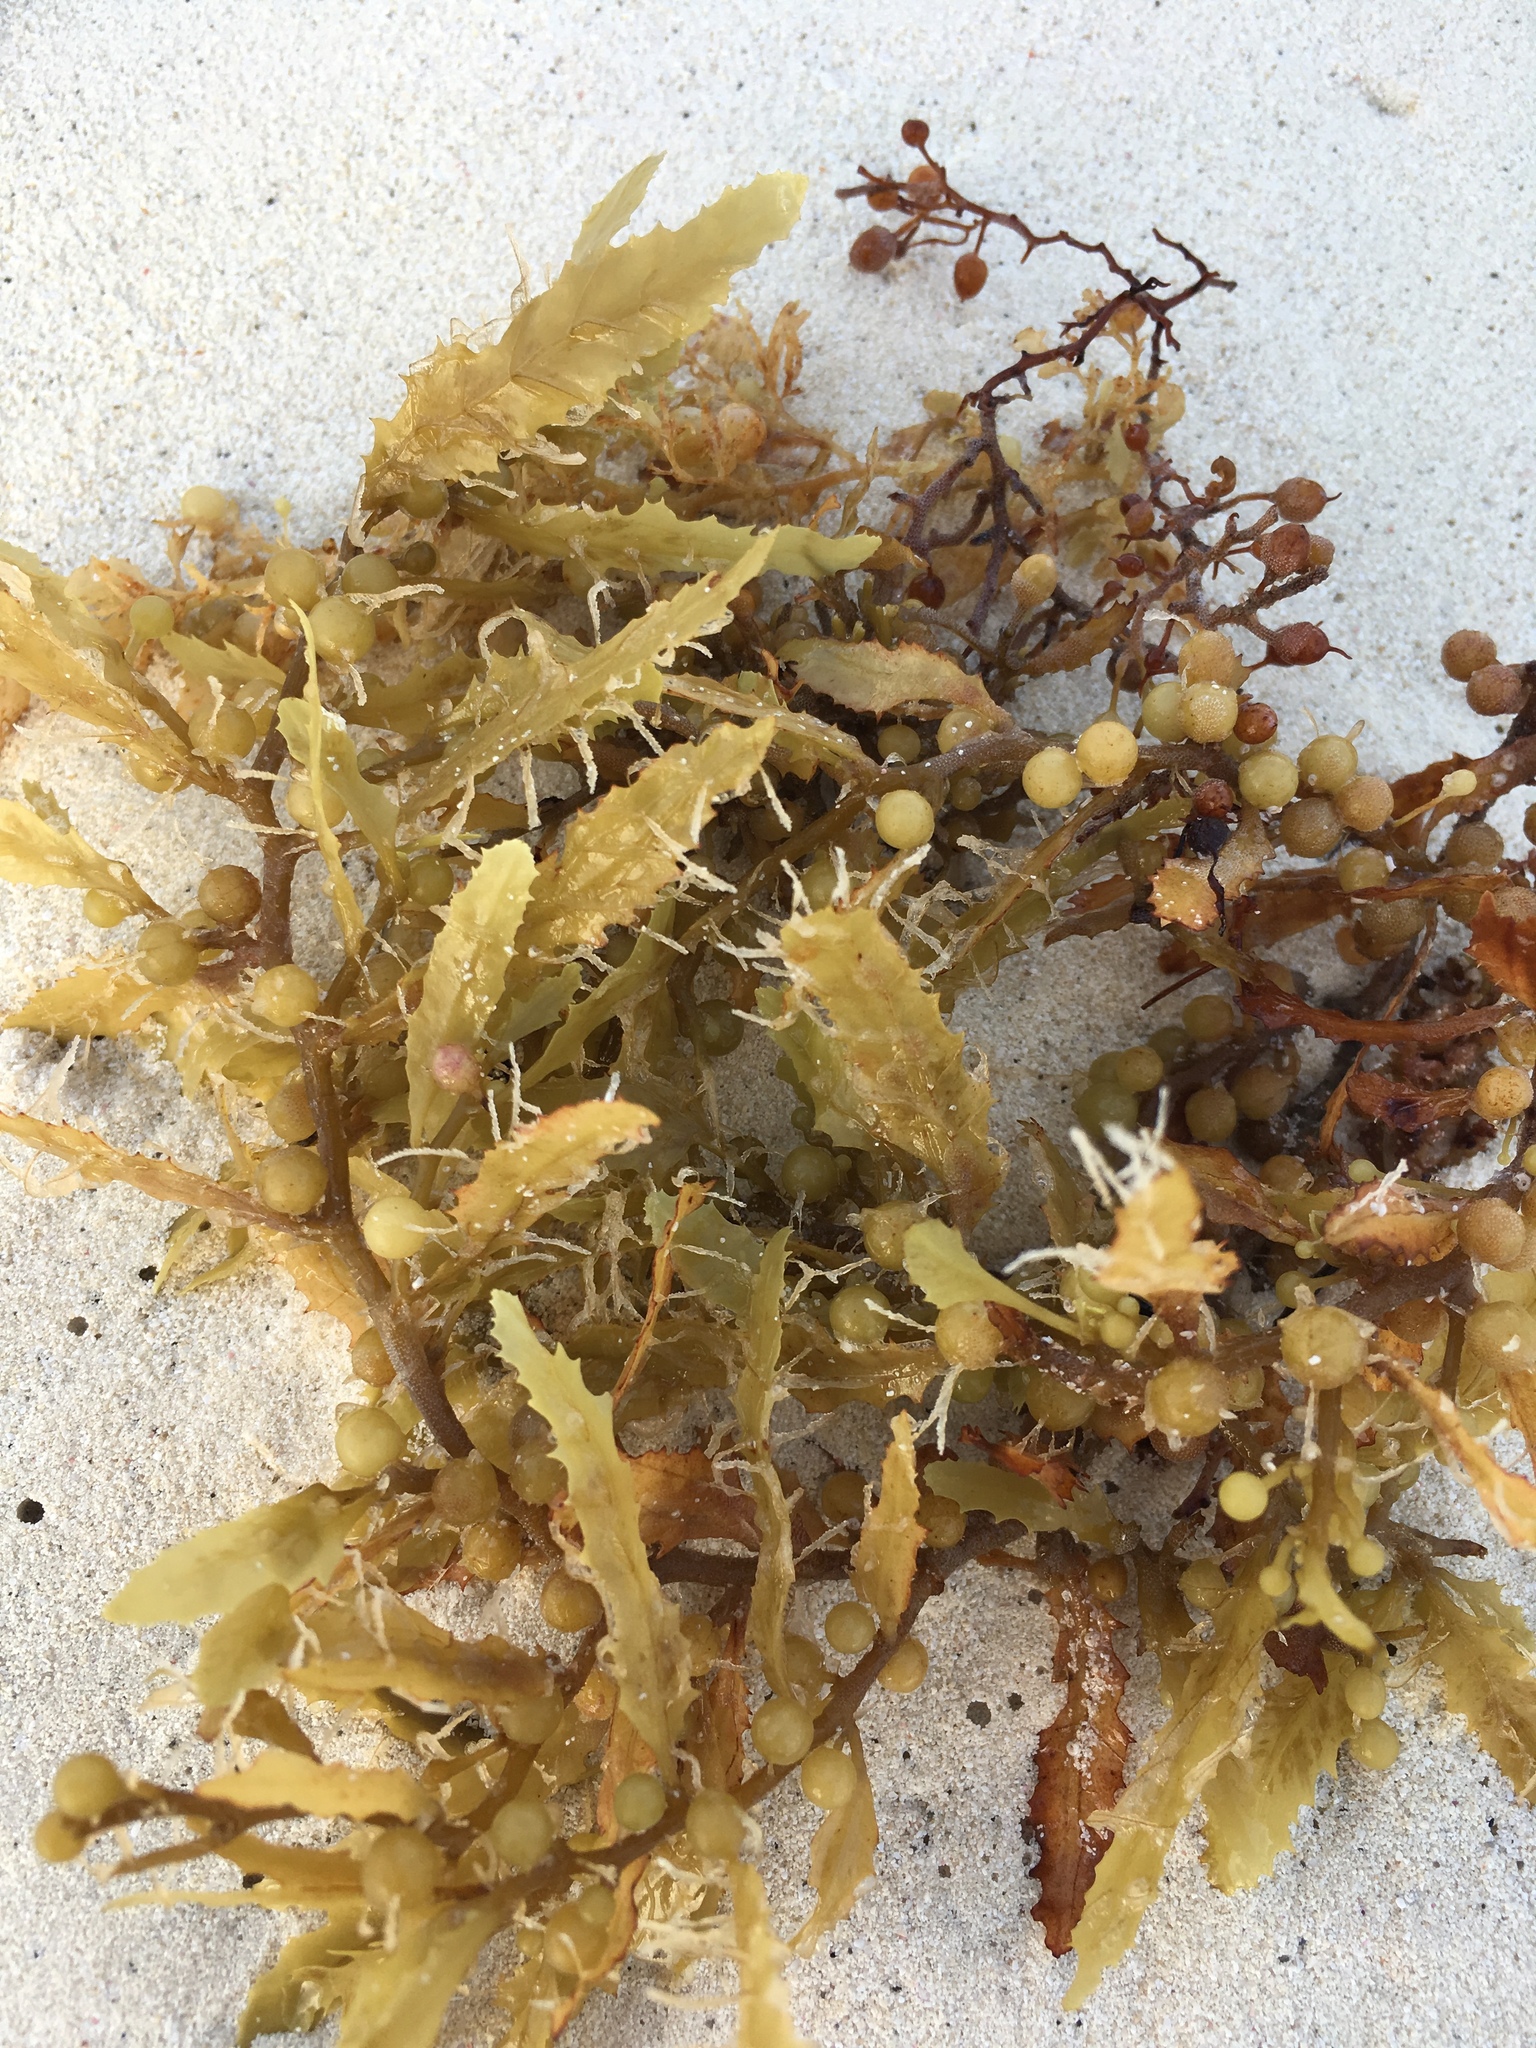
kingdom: Chromista
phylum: Ochrophyta
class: Phaeophyceae
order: Fucales
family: Sargassaceae
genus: Sargassum
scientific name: Sargassum fluitans
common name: Sargassum seaweed
